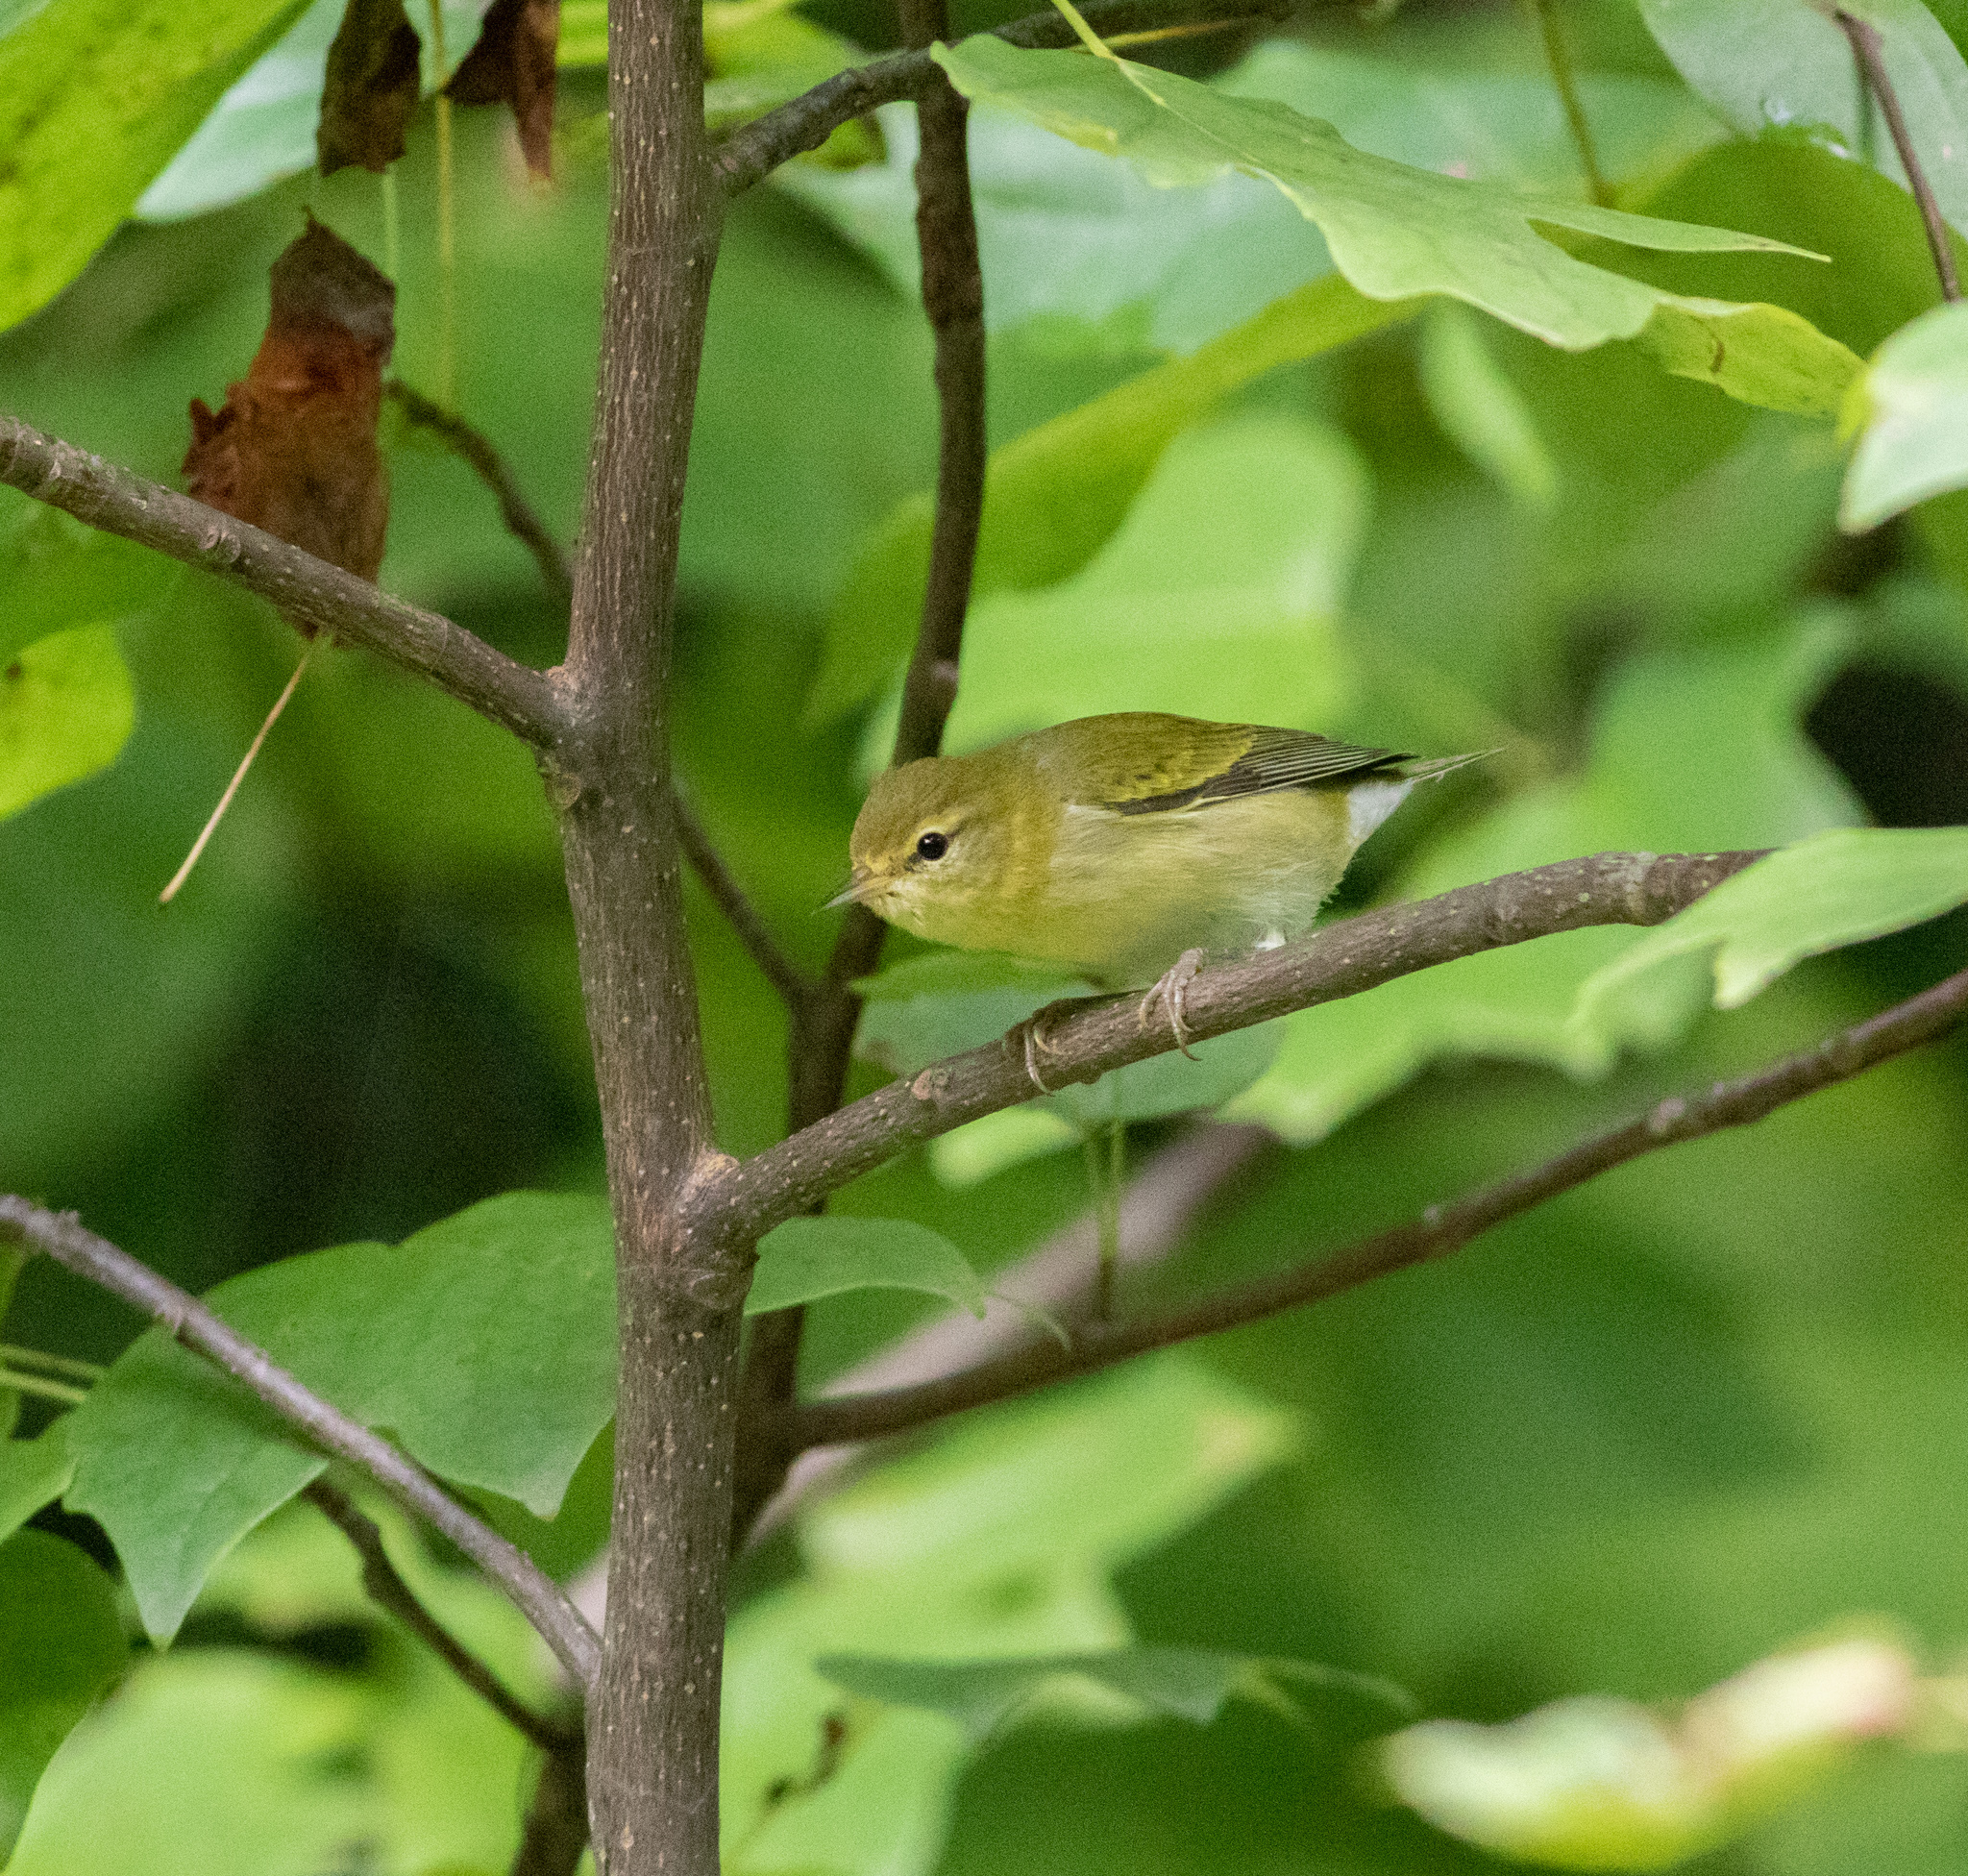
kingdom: Animalia
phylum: Chordata
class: Aves
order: Passeriformes
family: Parulidae
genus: Leiothlypis
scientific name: Leiothlypis peregrina
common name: Tennessee warbler
